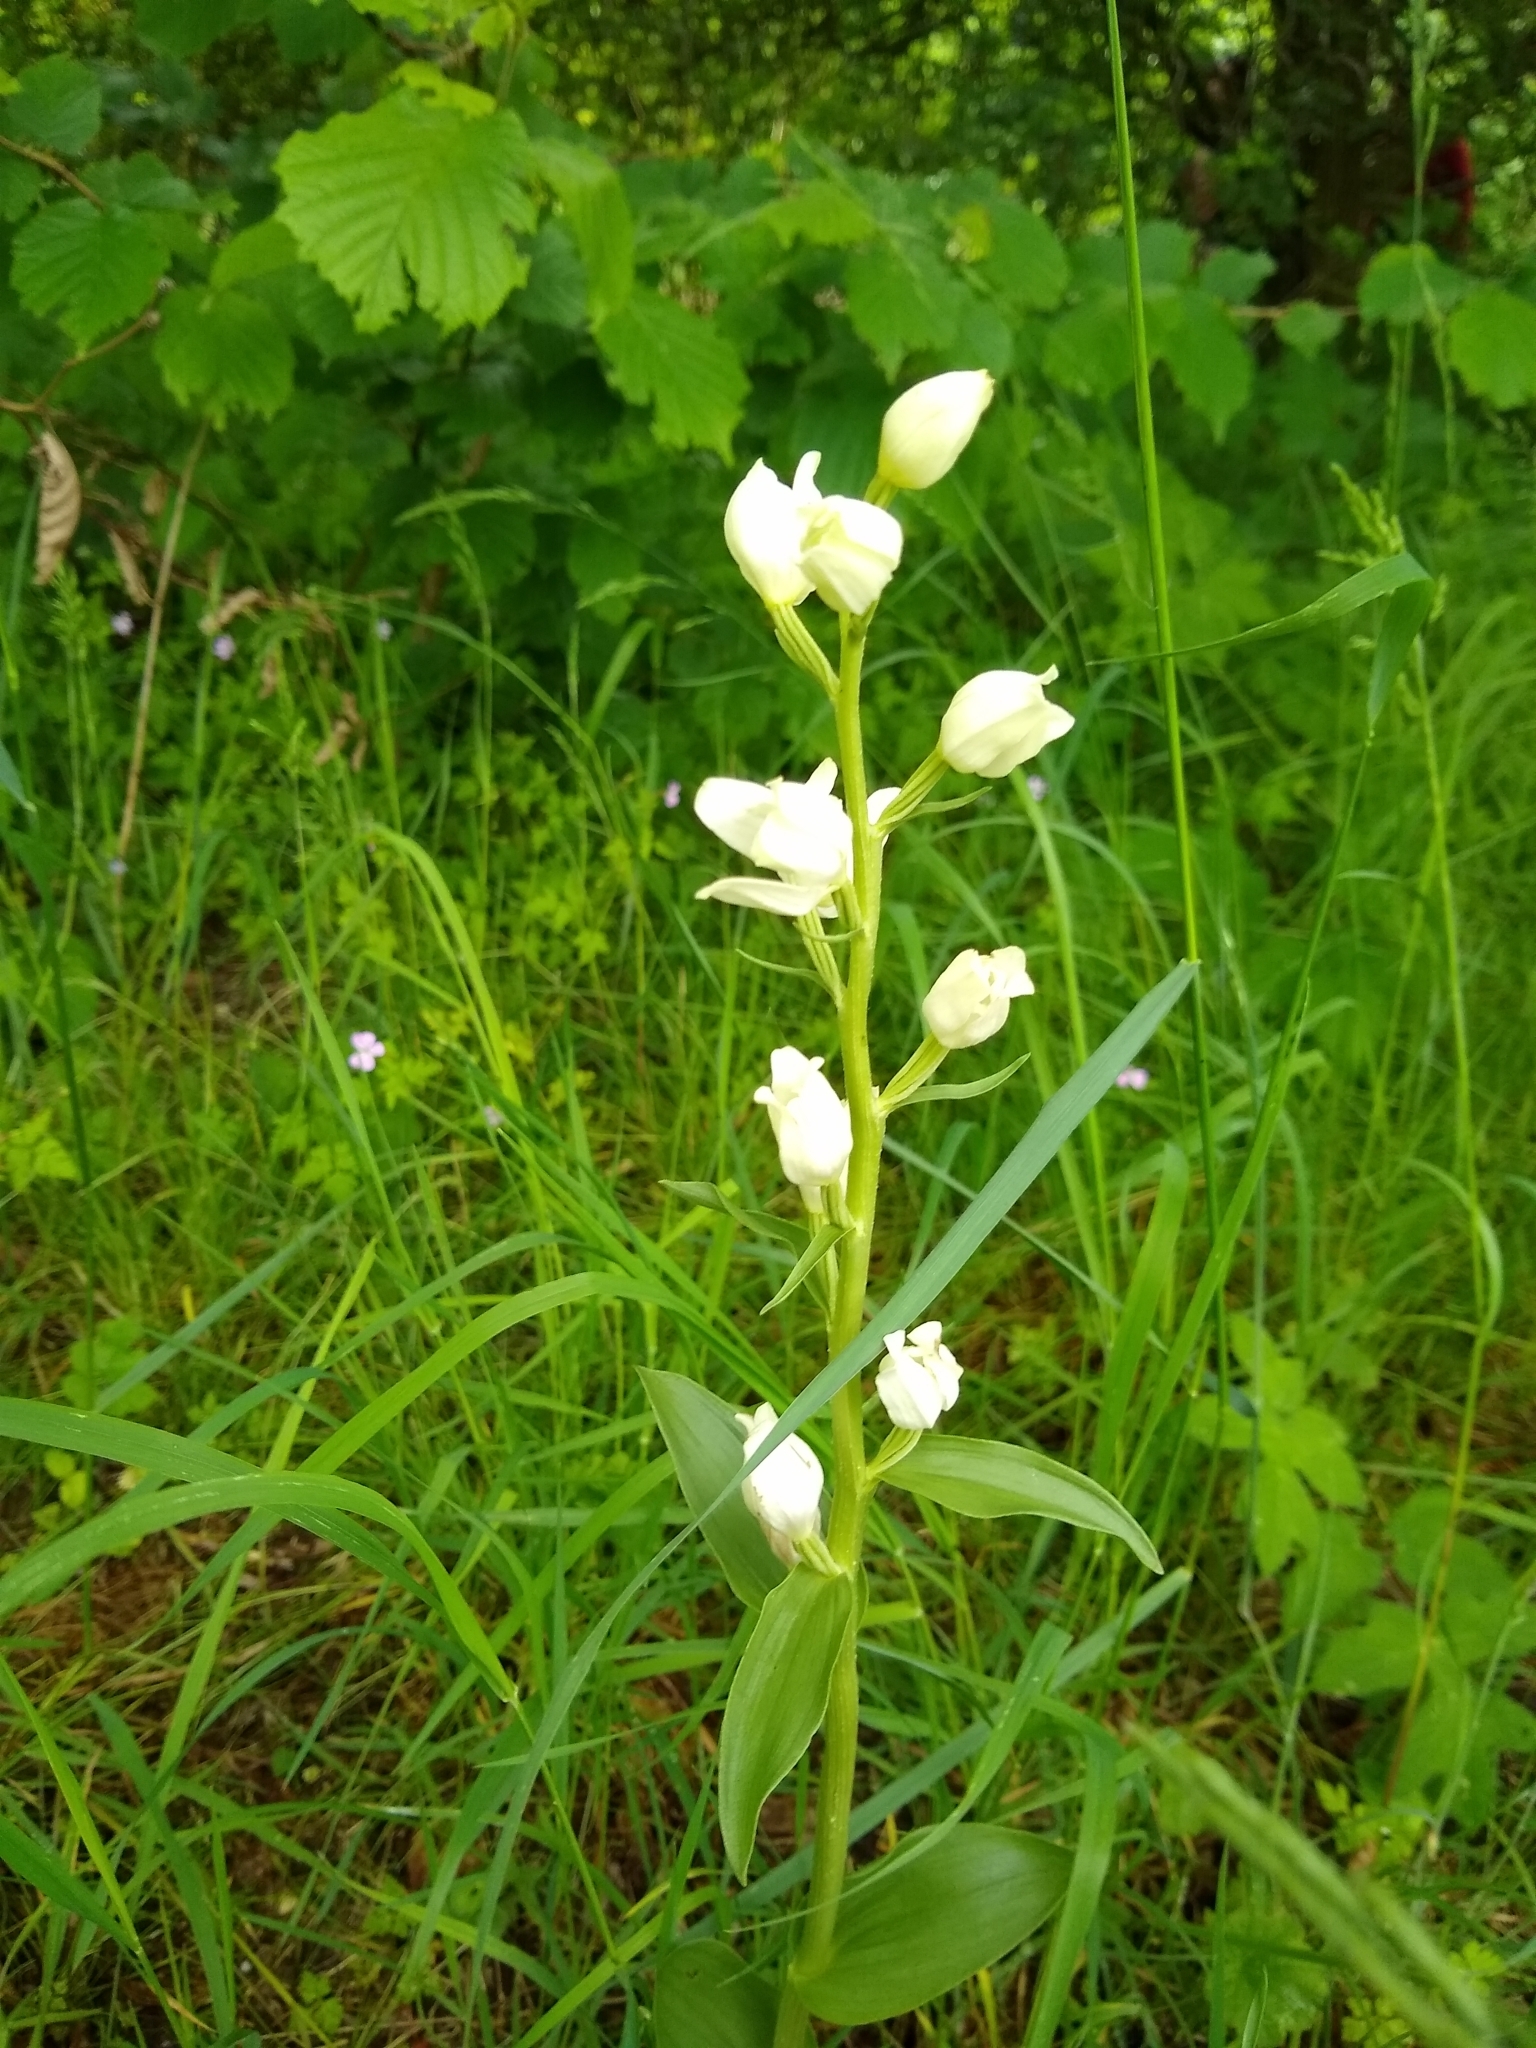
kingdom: Plantae
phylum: Tracheophyta
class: Liliopsida
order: Asparagales
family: Orchidaceae
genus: Cephalanthera
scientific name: Cephalanthera damasonium
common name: White helleborine
